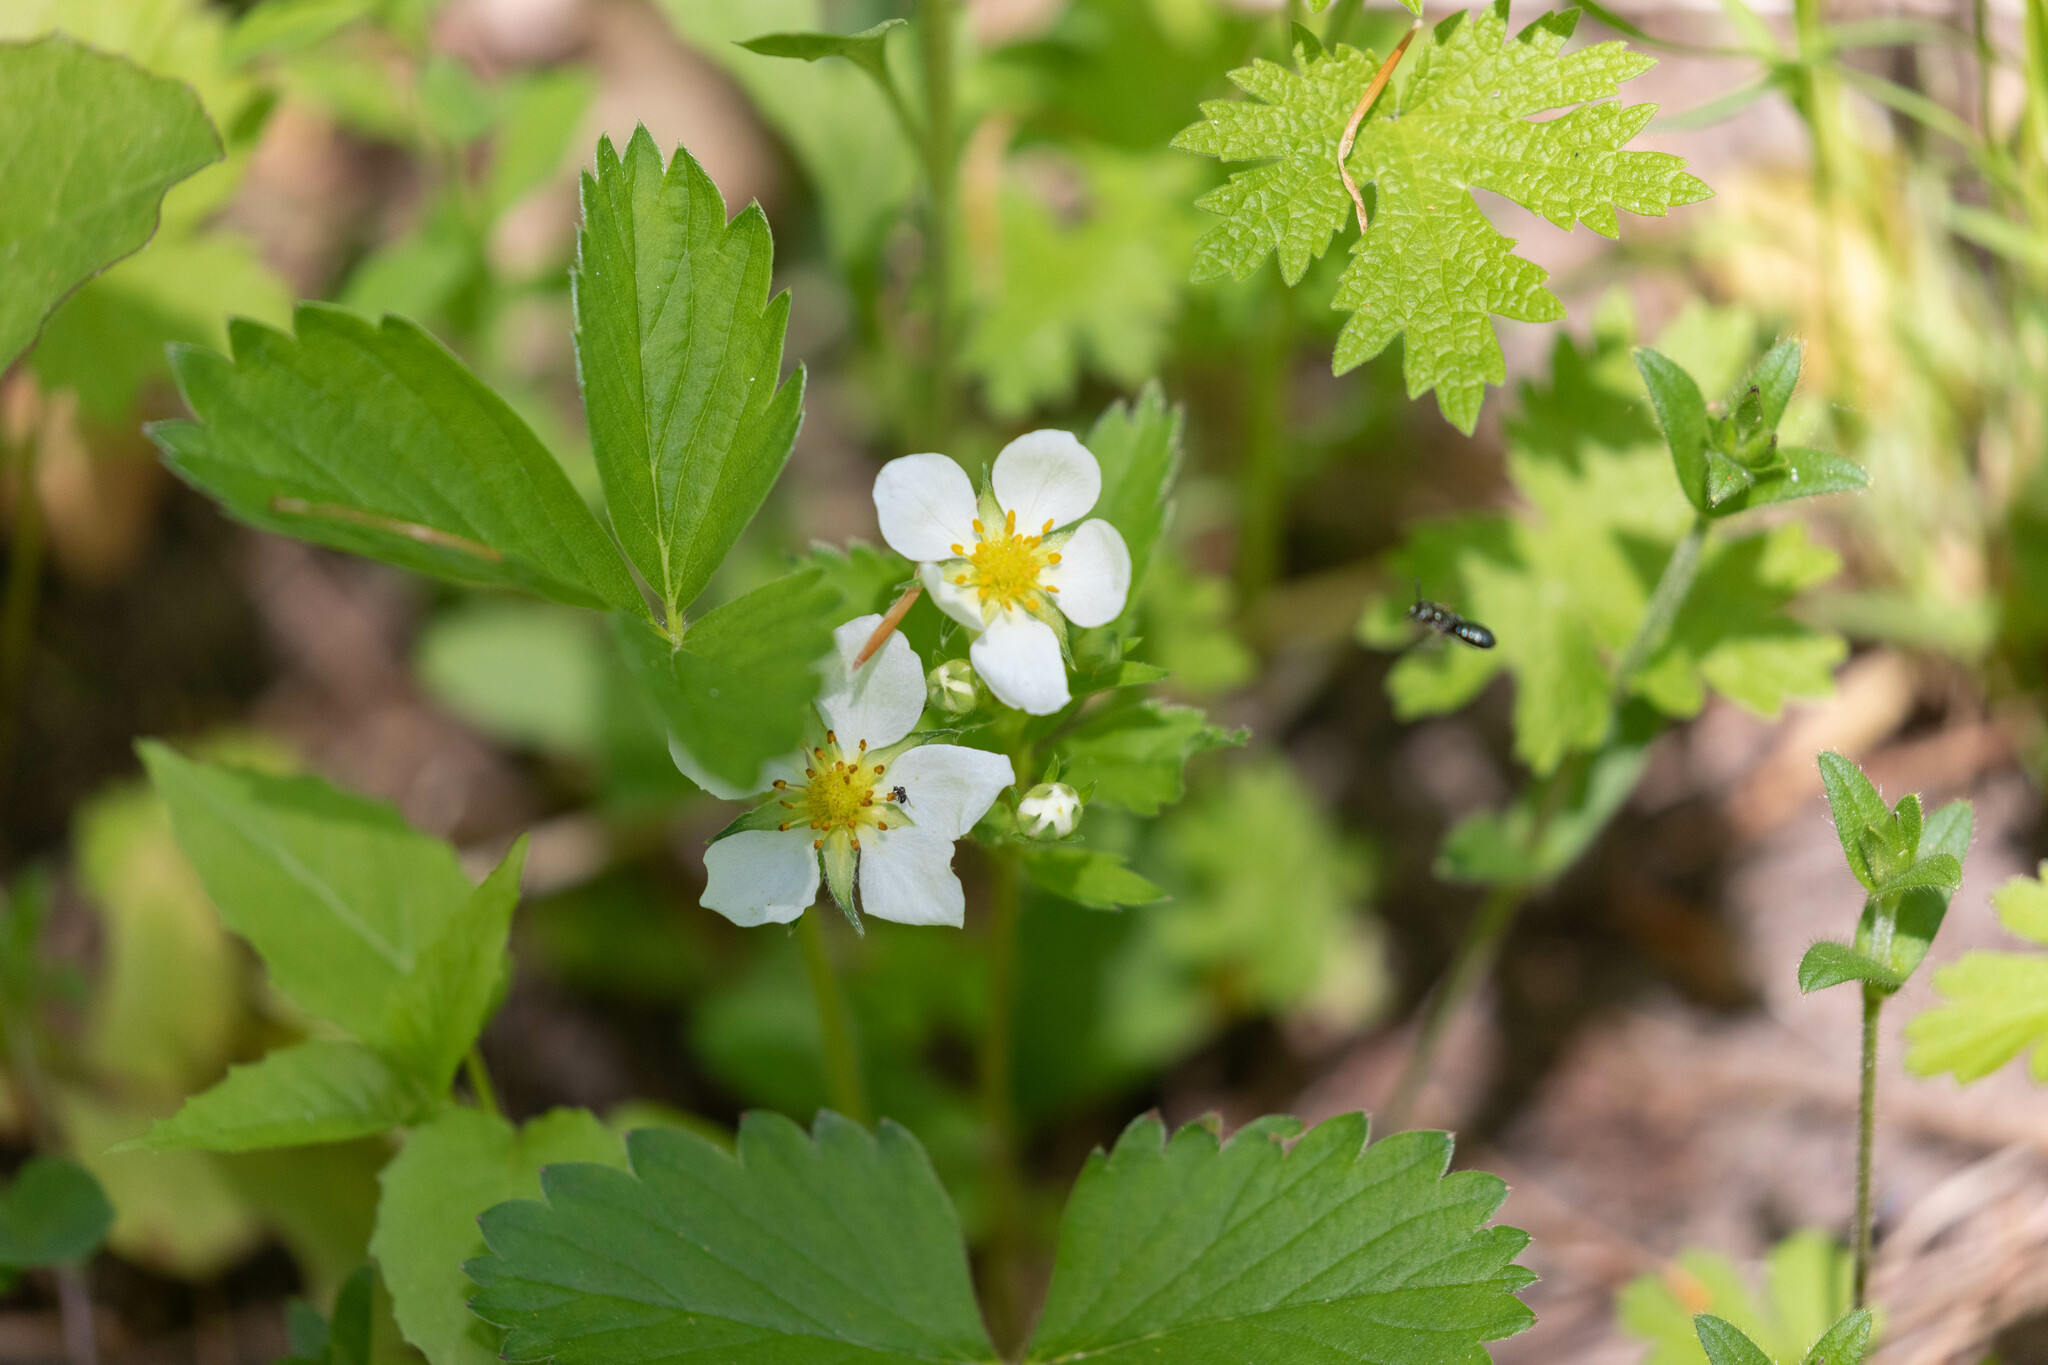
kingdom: Plantae
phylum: Tracheophyta
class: Magnoliopsida
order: Rosales
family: Rosaceae
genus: Fragaria
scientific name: Fragaria virginiana
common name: Thickleaved wild strawberry
